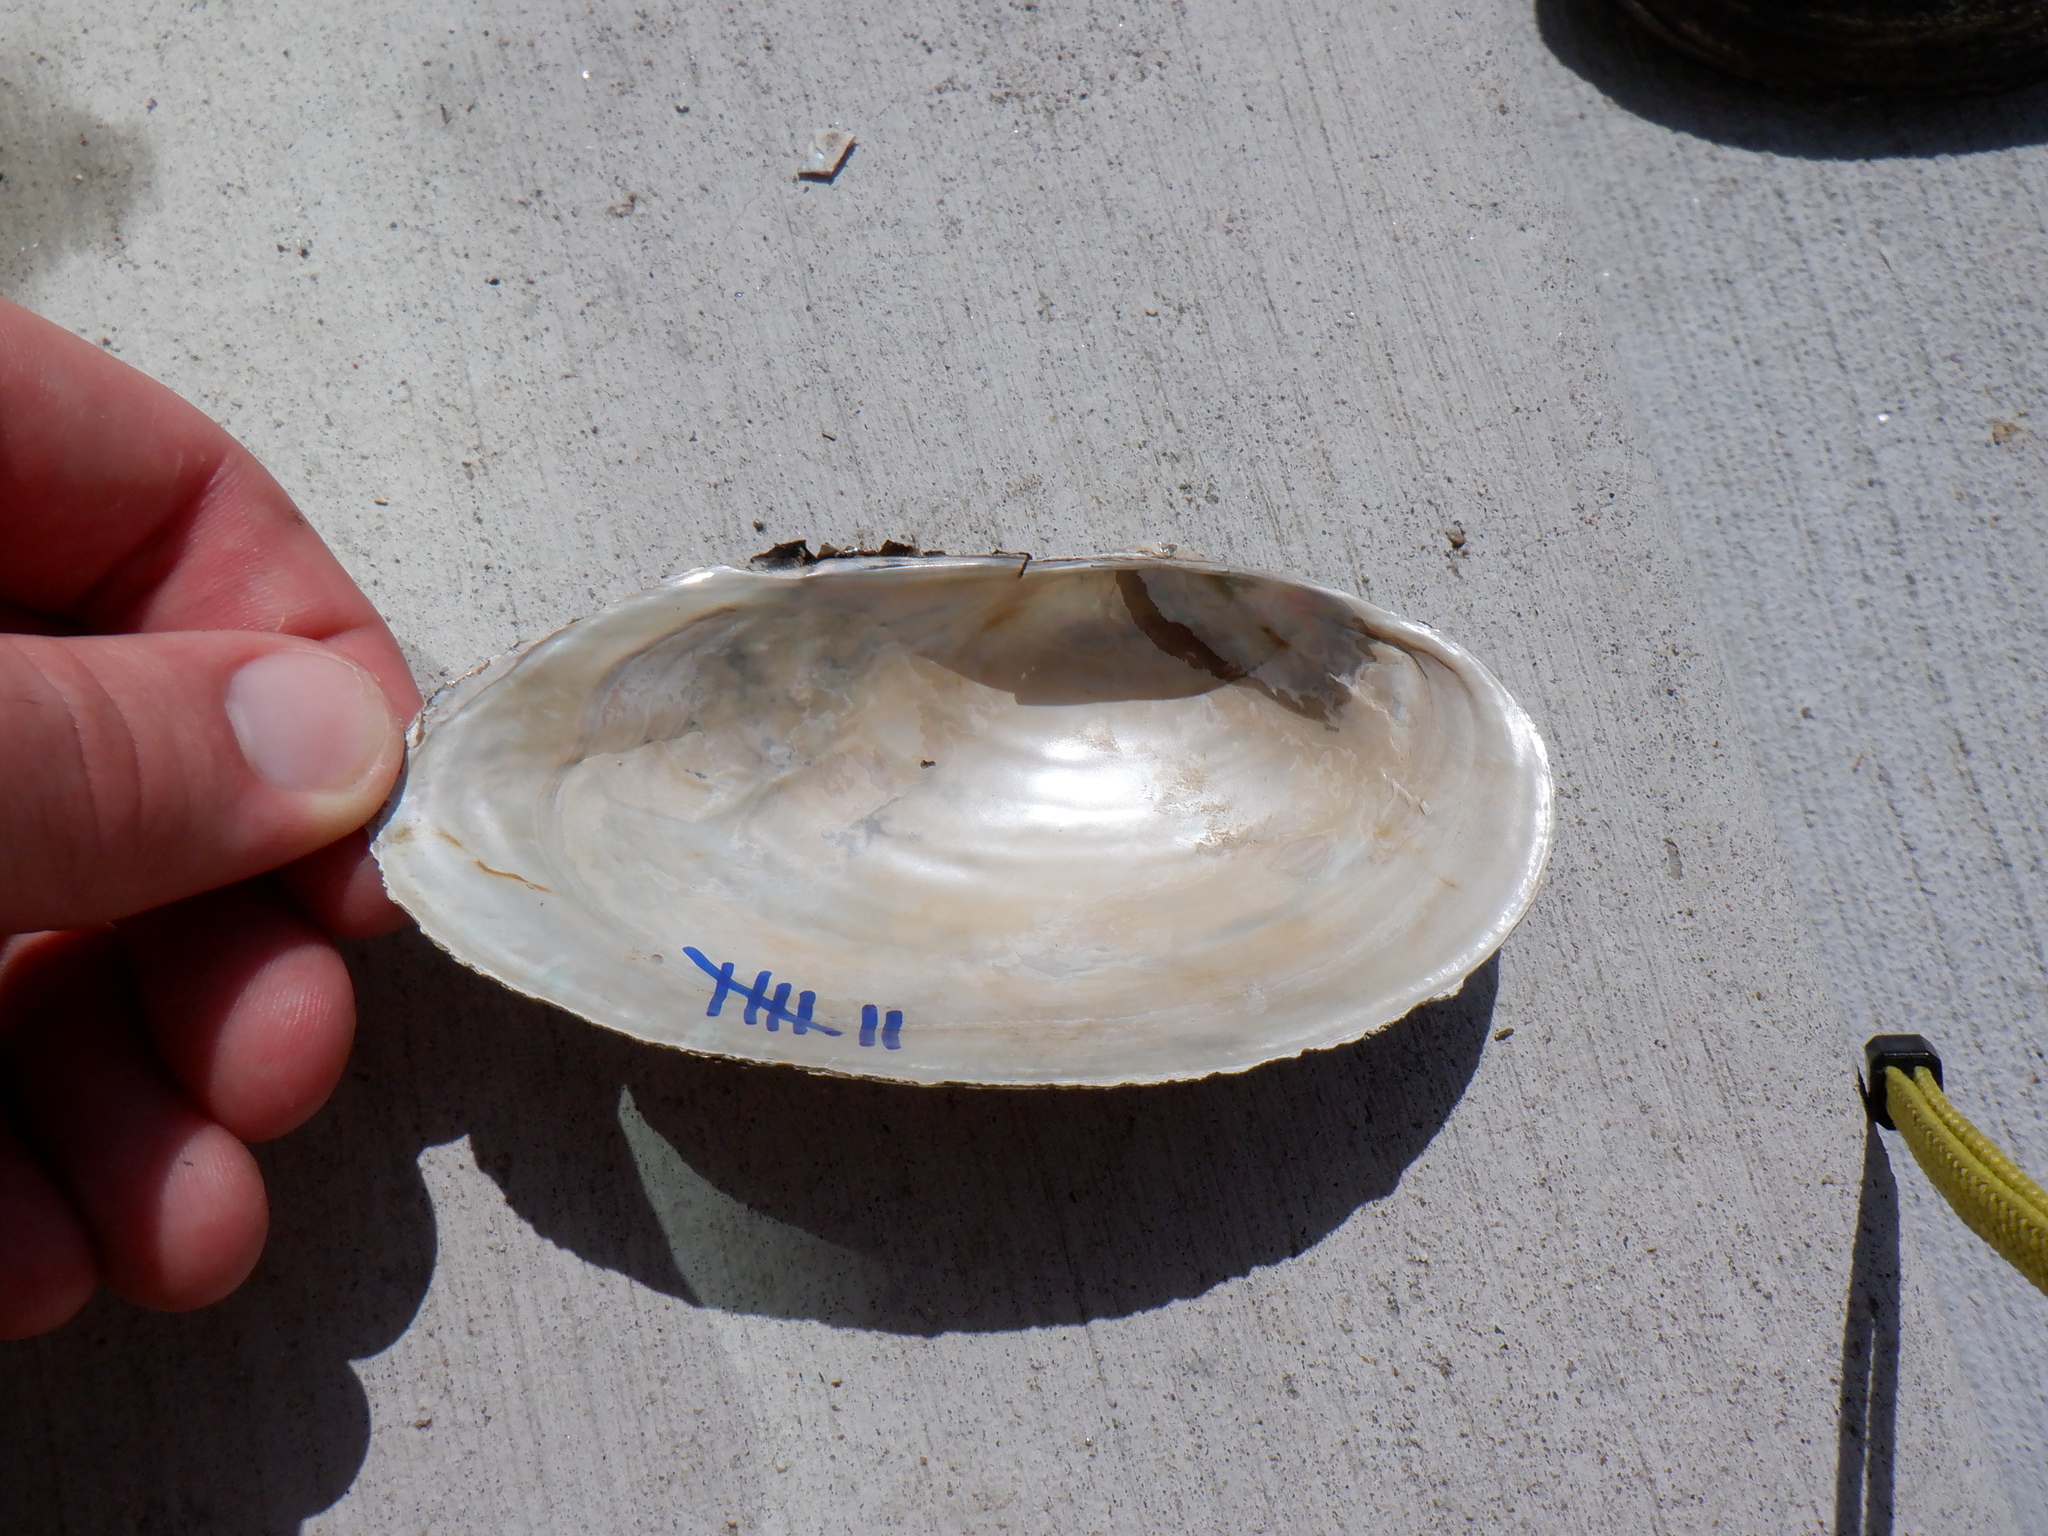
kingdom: Animalia
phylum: Mollusca
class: Bivalvia
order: Unionida
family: Unionidae
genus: Pyganodon
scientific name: Pyganodon grandis
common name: Giant floater
